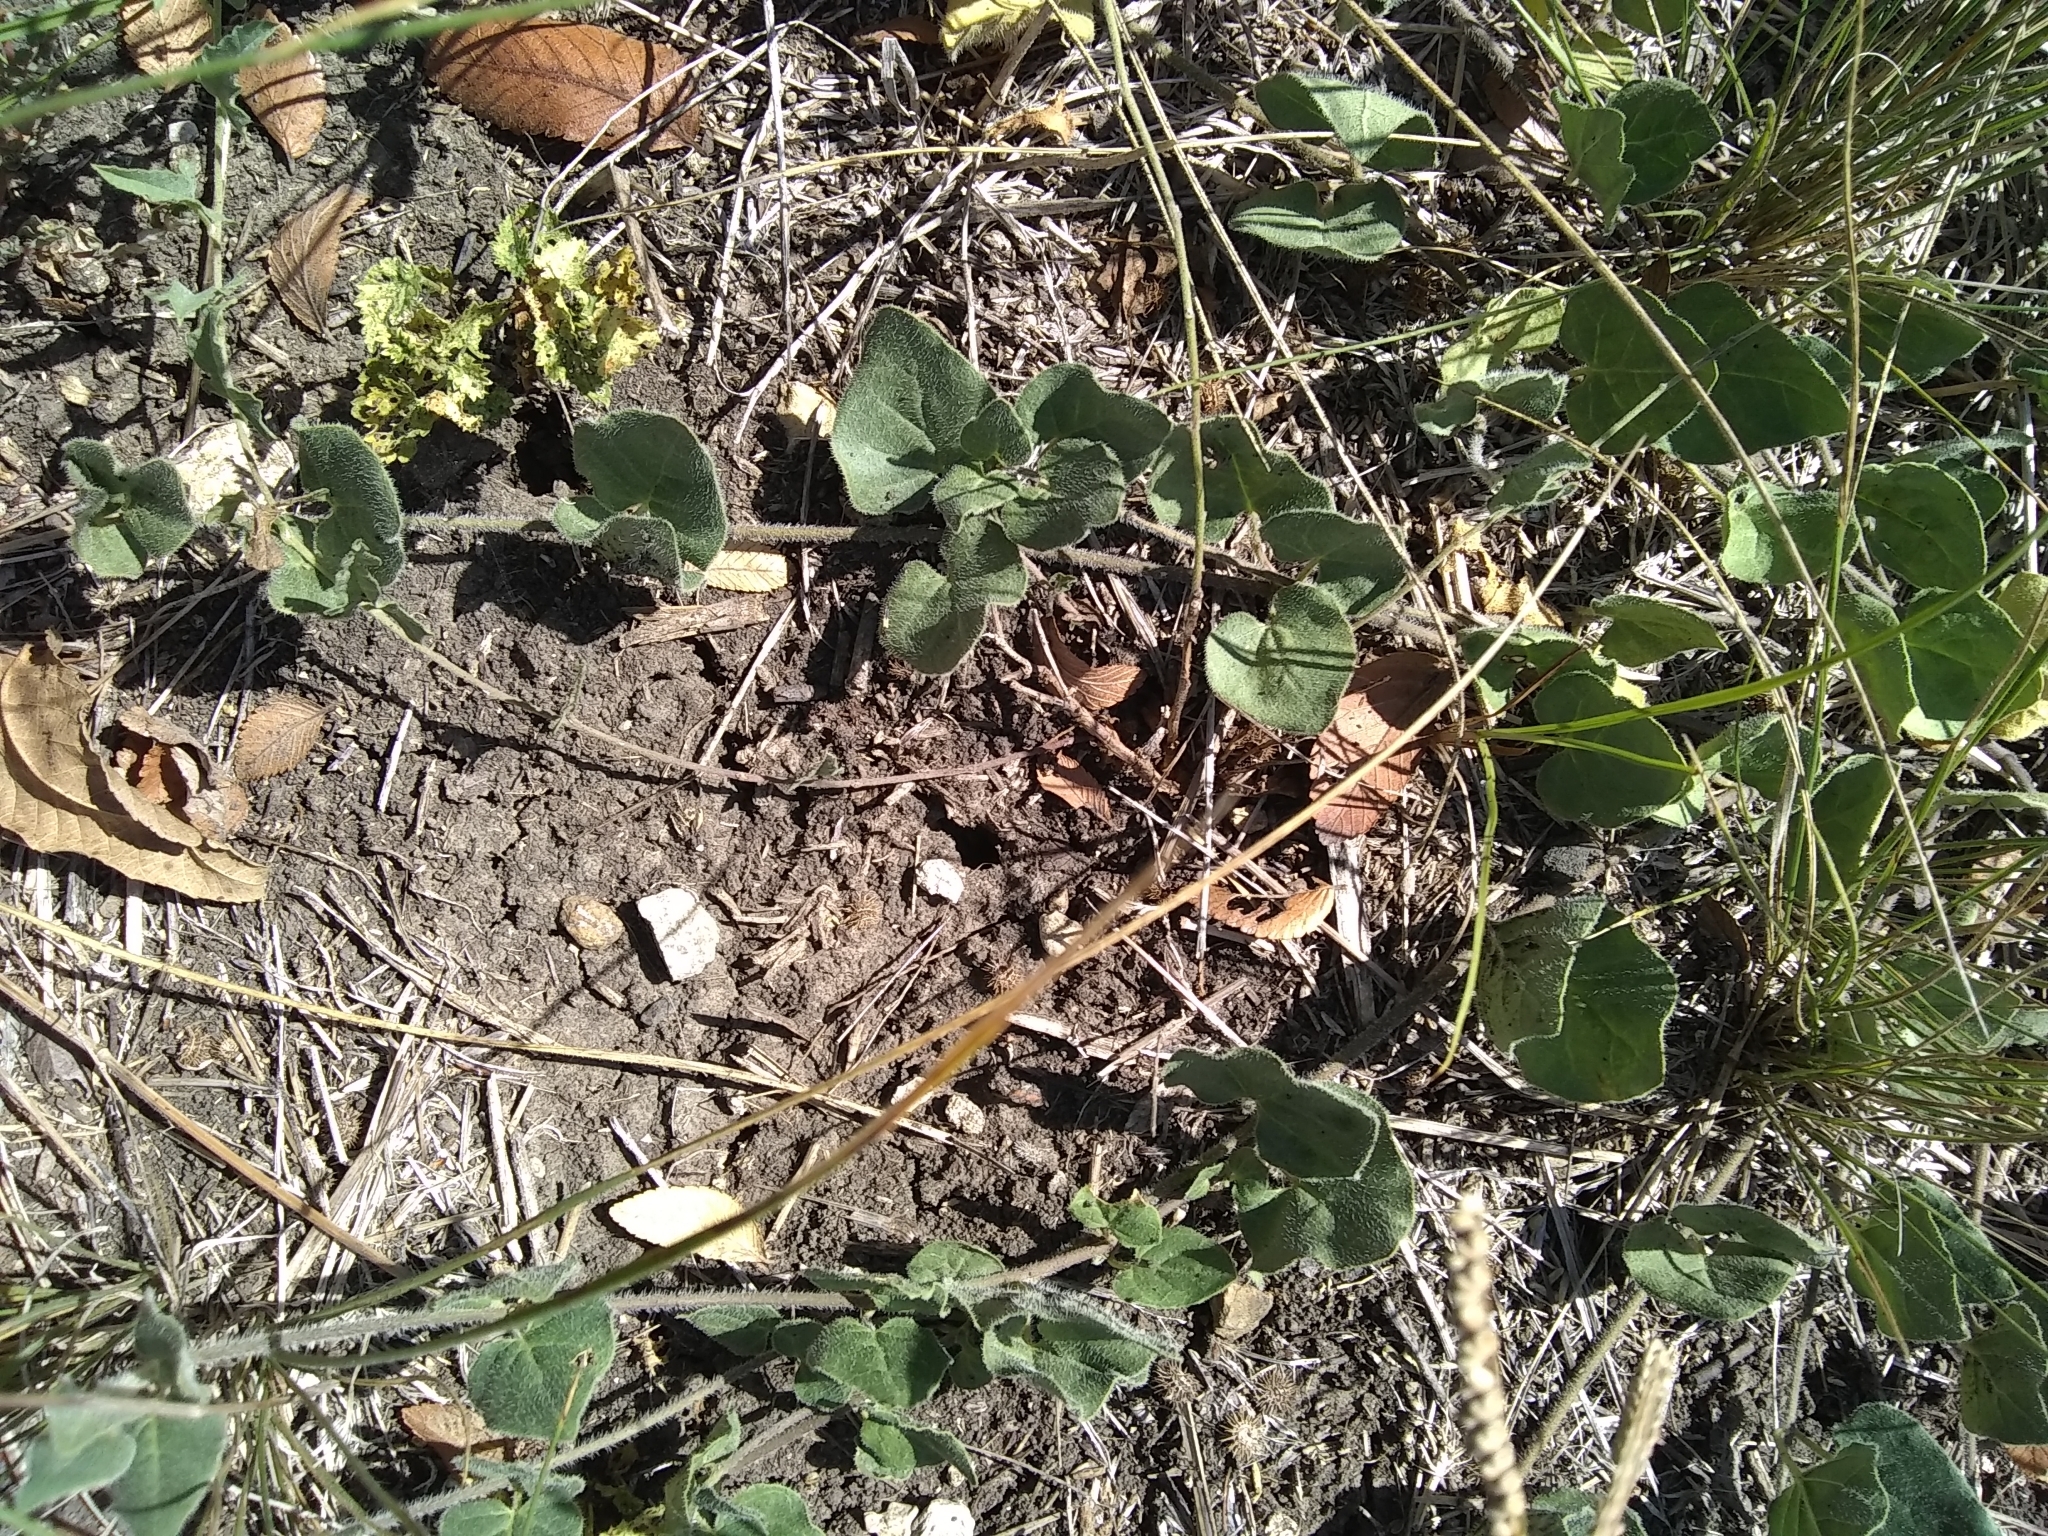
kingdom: Plantae
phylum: Tracheophyta
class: Magnoliopsida
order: Gentianales
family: Apocynaceae
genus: Chthamalia
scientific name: Chthamalia biflora
